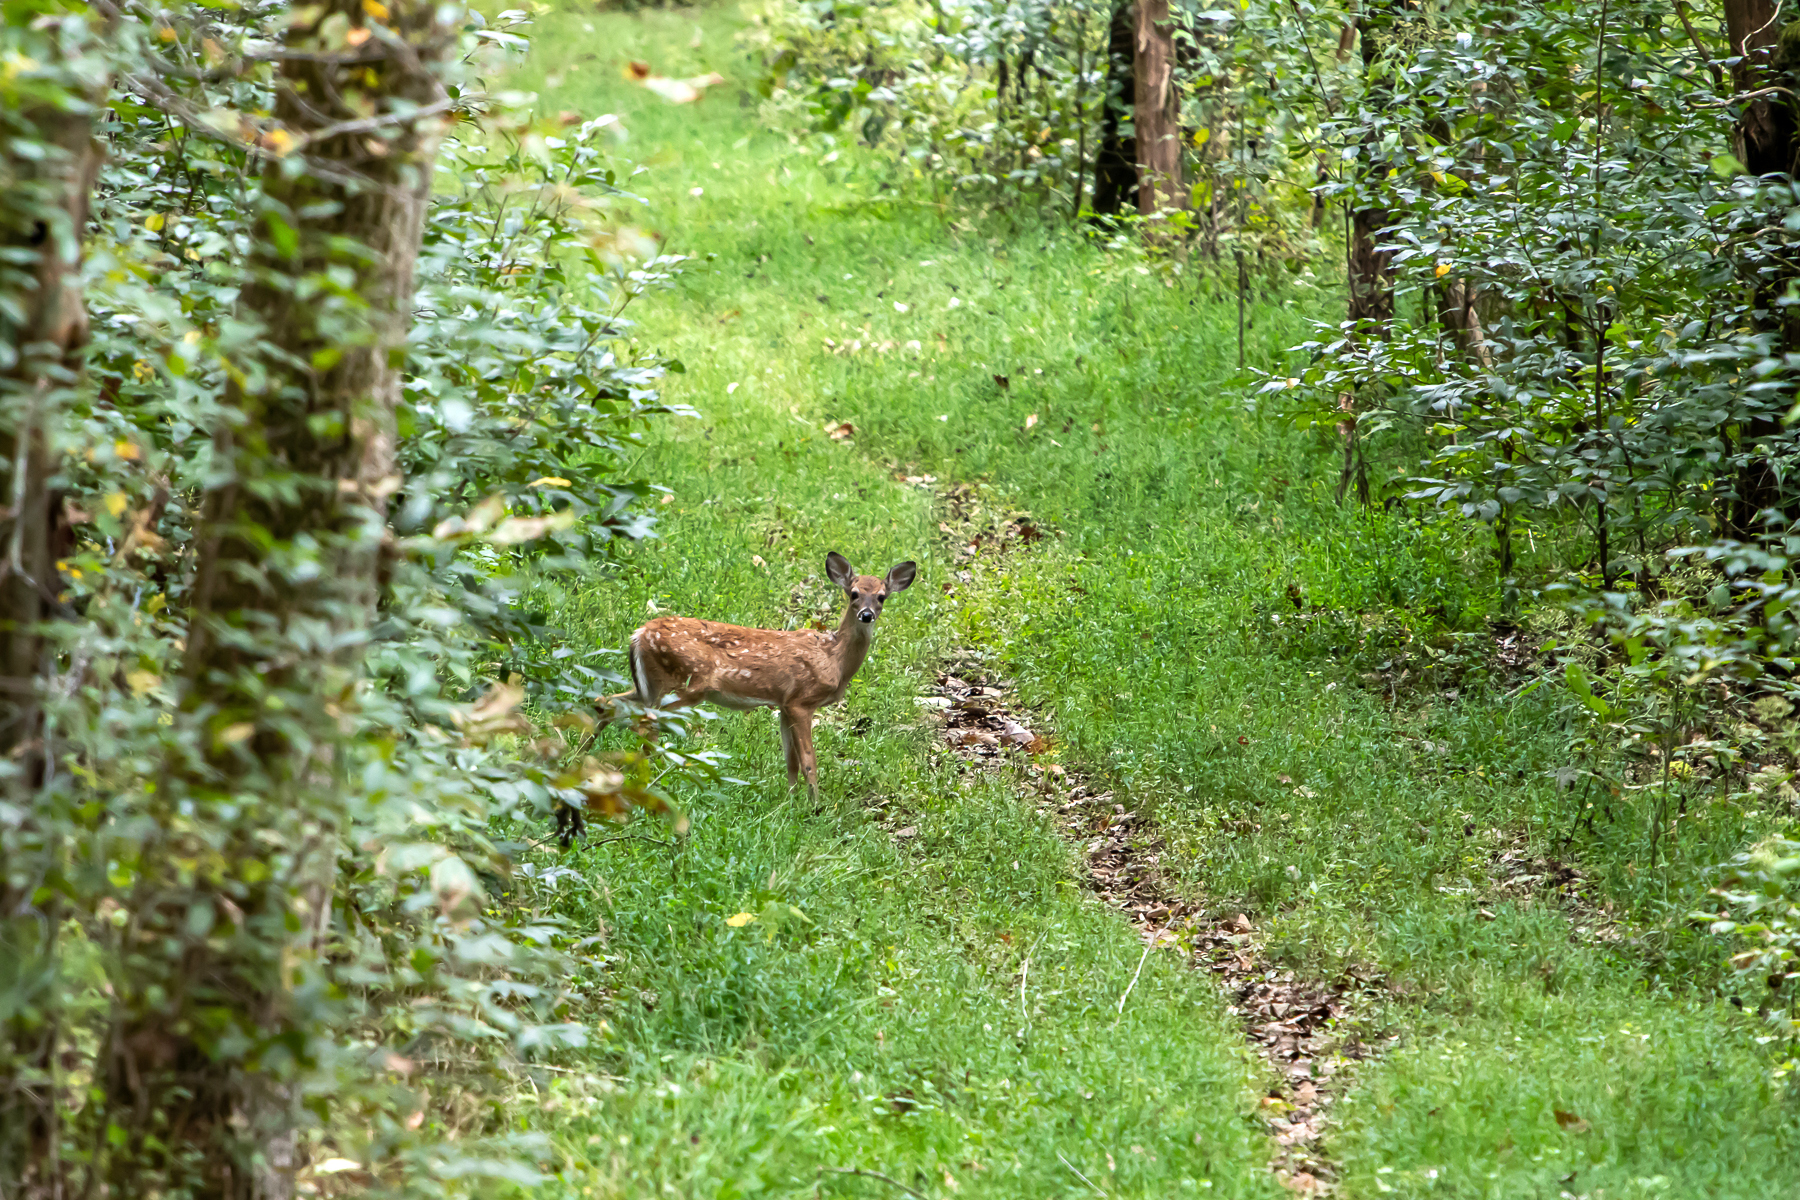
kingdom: Animalia
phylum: Chordata
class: Mammalia
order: Artiodactyla
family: Cervidae
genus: Odocoileus
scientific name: Odocoileus virginianus
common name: White-tailed deer
